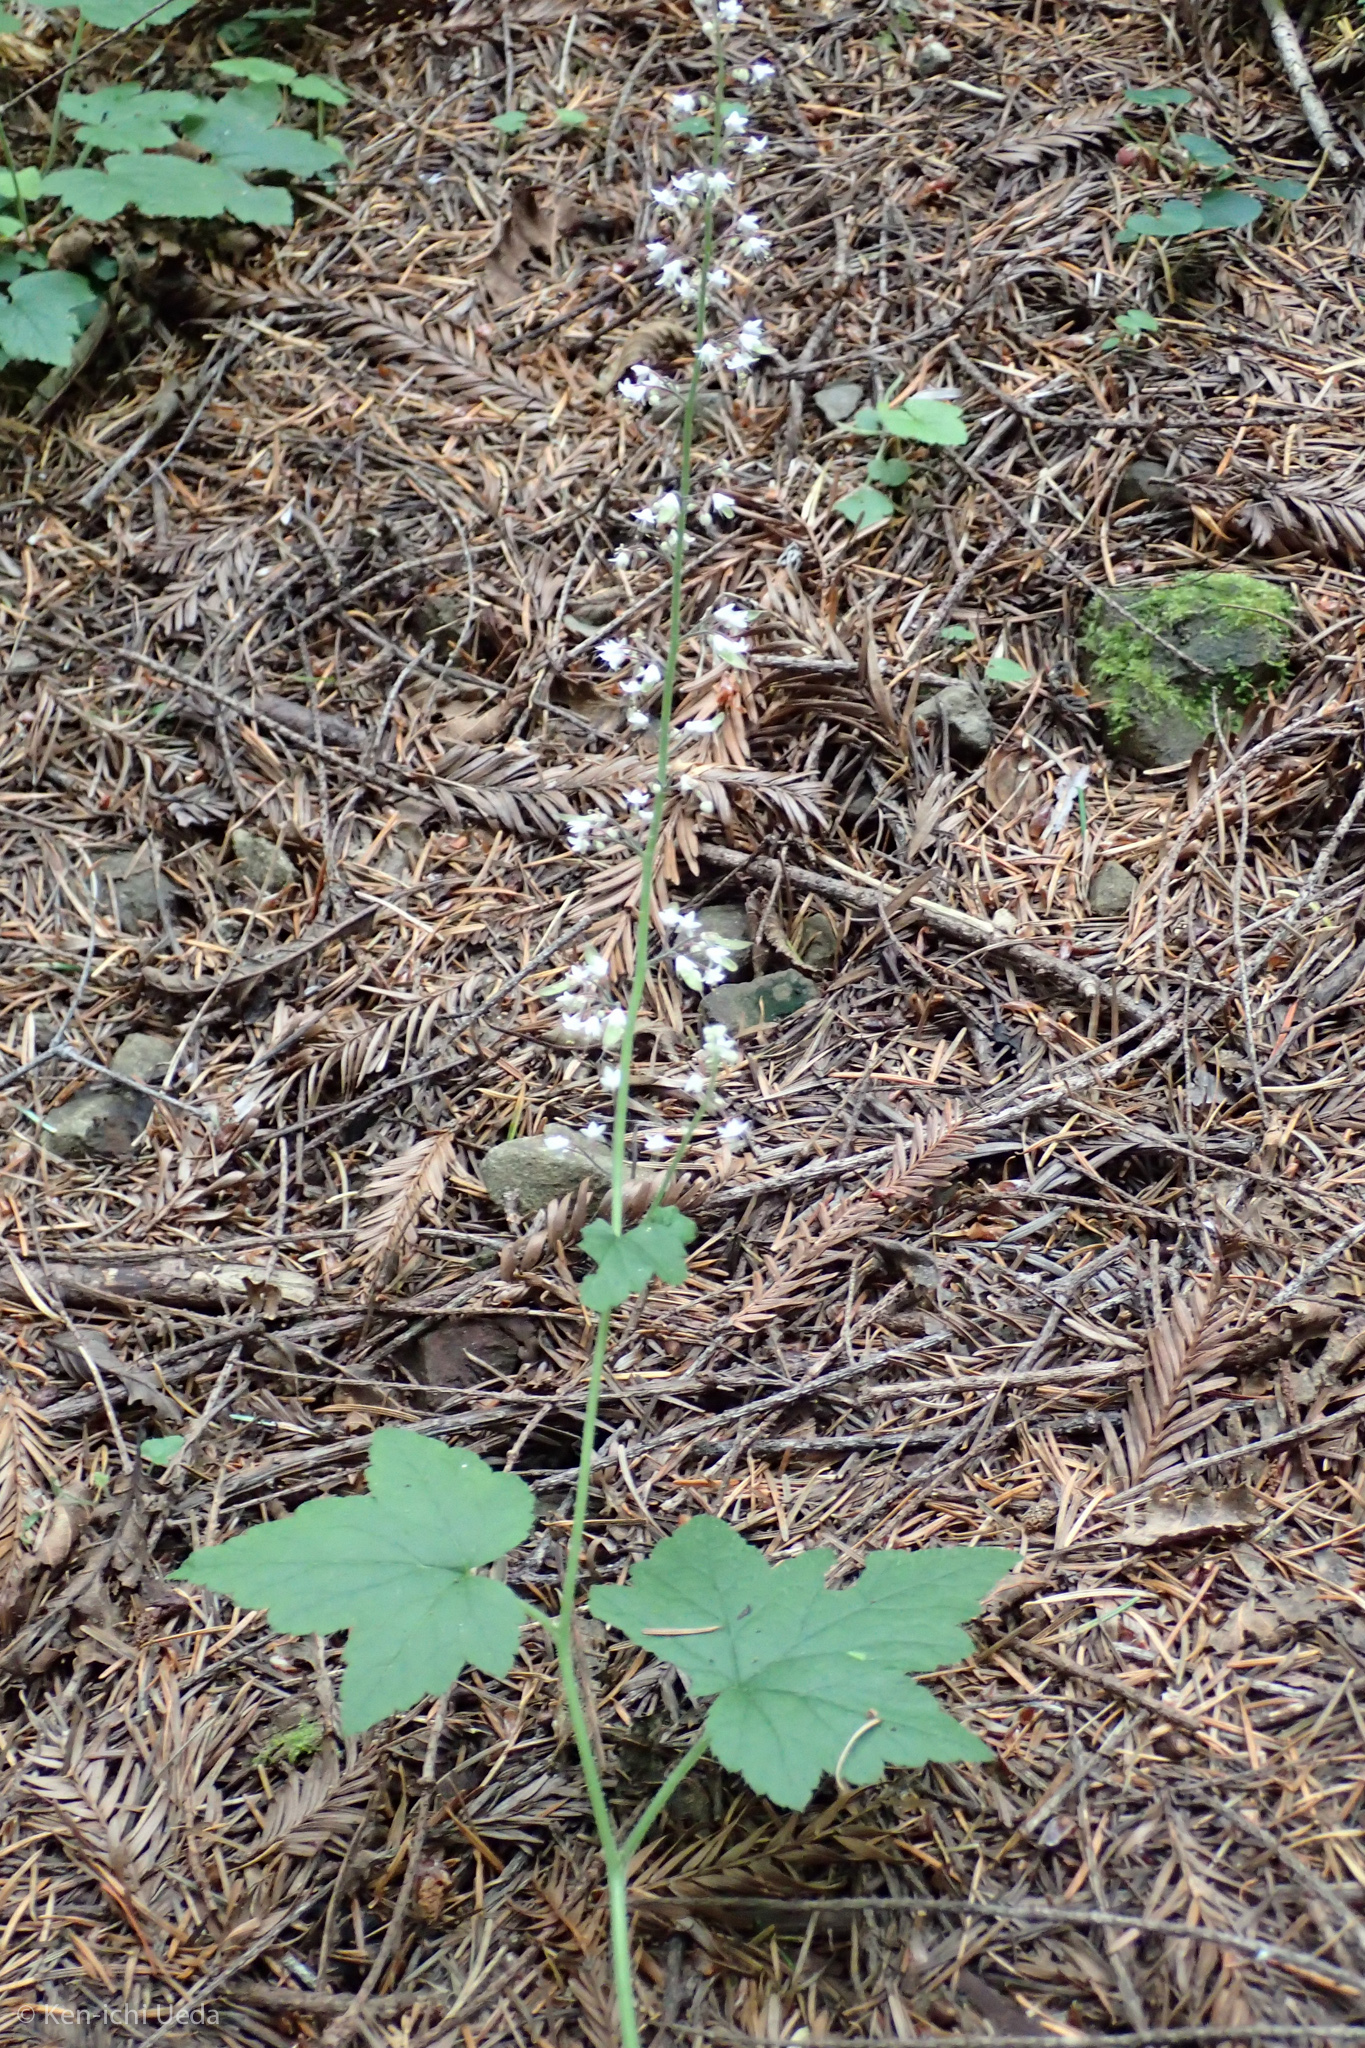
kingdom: Plantae
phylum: Tracheophyta
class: Magnoliopsida
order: Saxifragales
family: Saxifragaceae
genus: Tiarella
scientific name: Tiarella trifoliata
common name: Sugar-scoop
